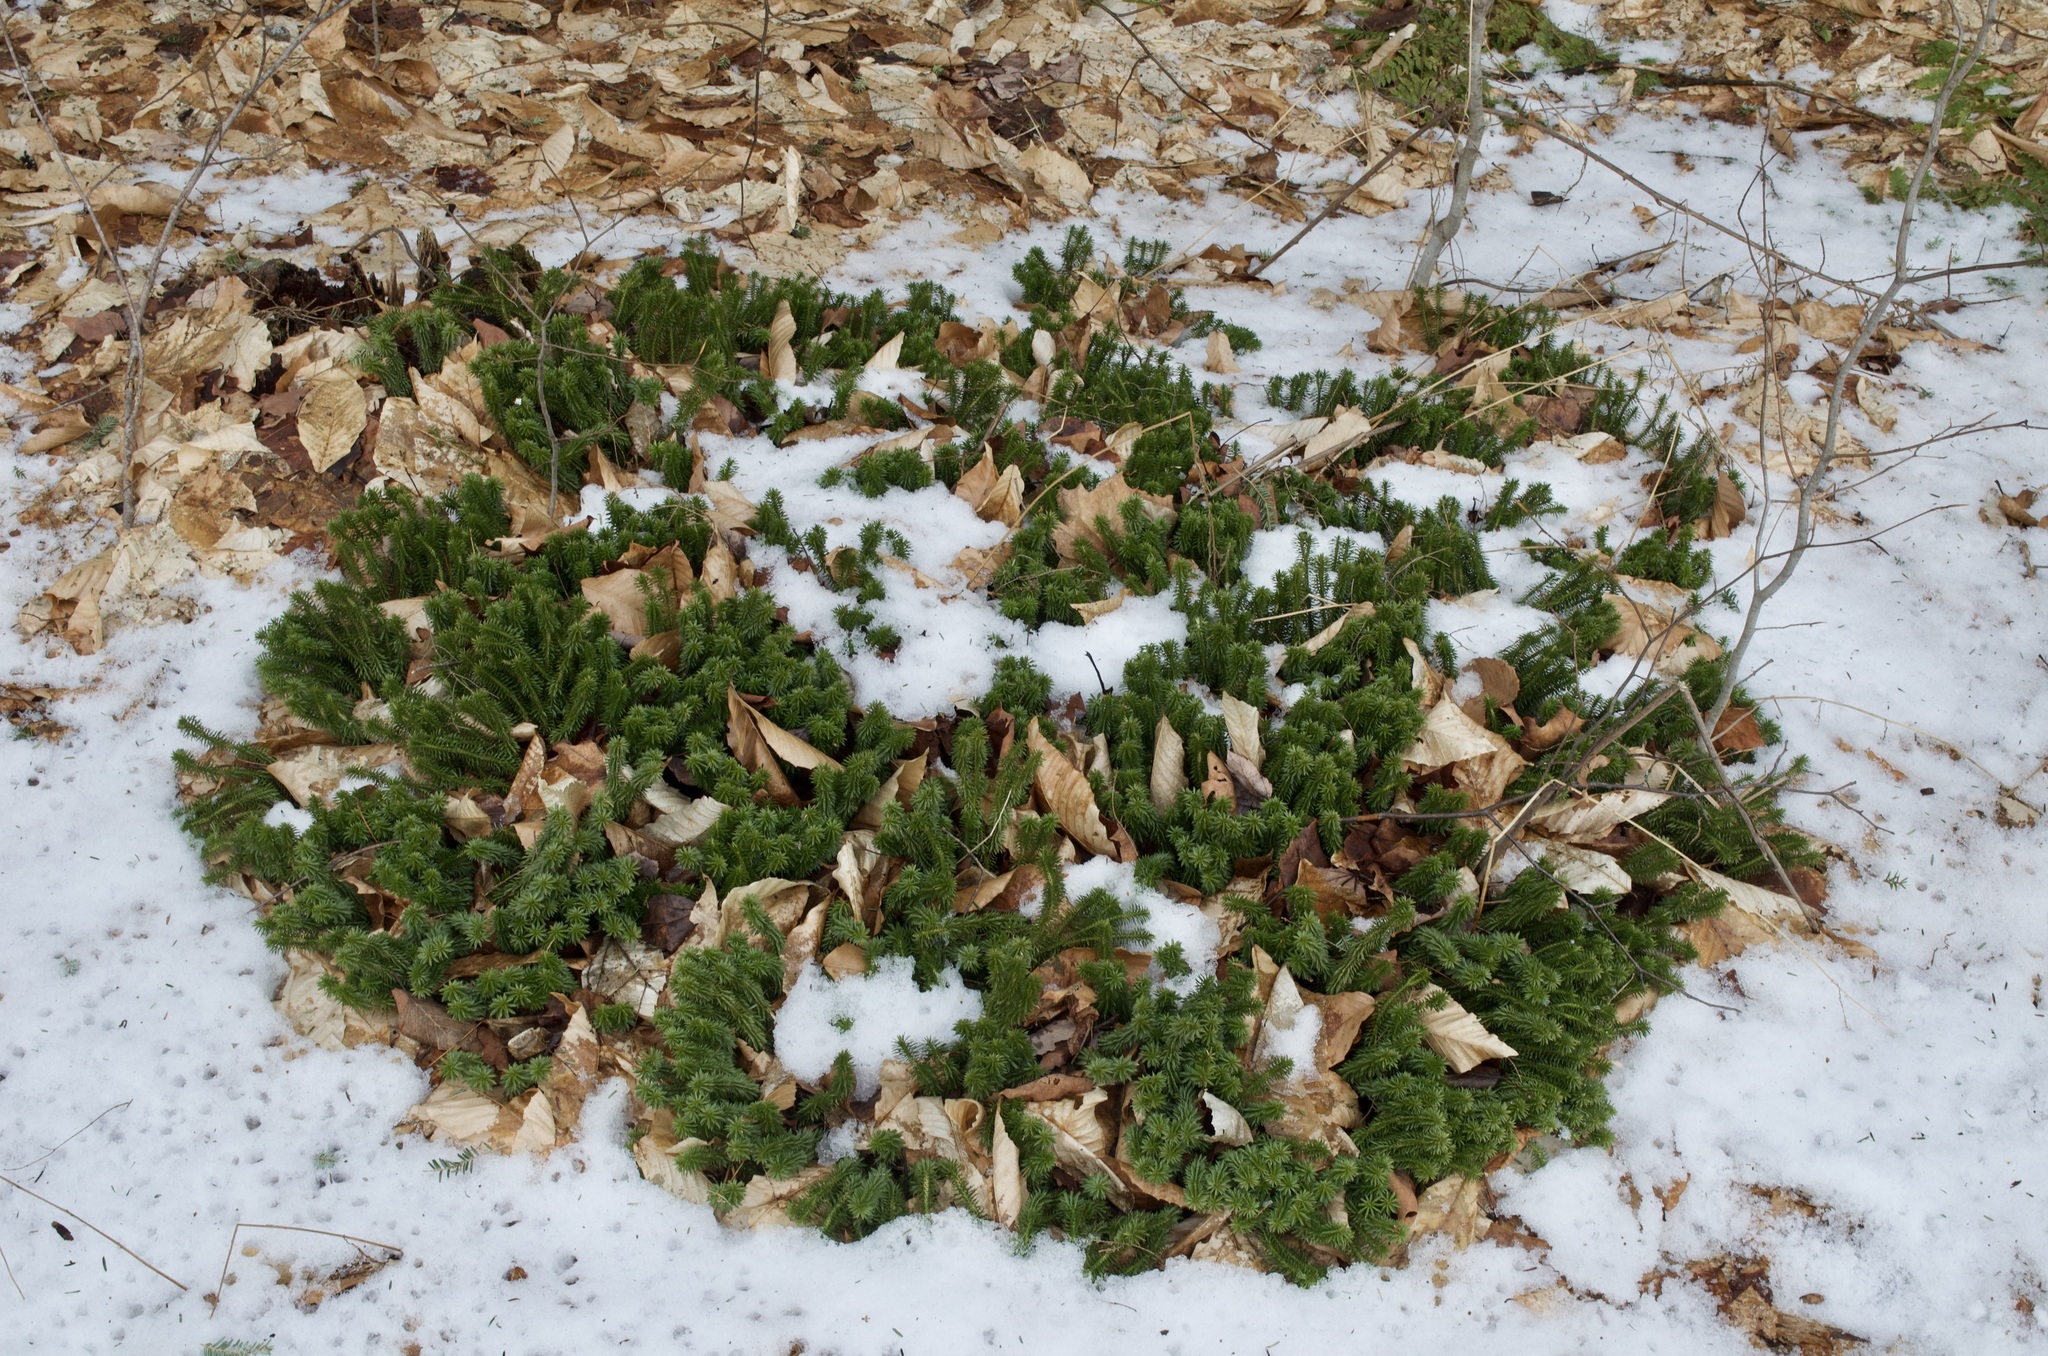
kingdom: Plantae
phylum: Tracheophyta
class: Lycopodiopsida
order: Lycopodiales
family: Lycopodiaceae
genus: Huperzia
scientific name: Huperzia lucidula
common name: Shining clubmoss
